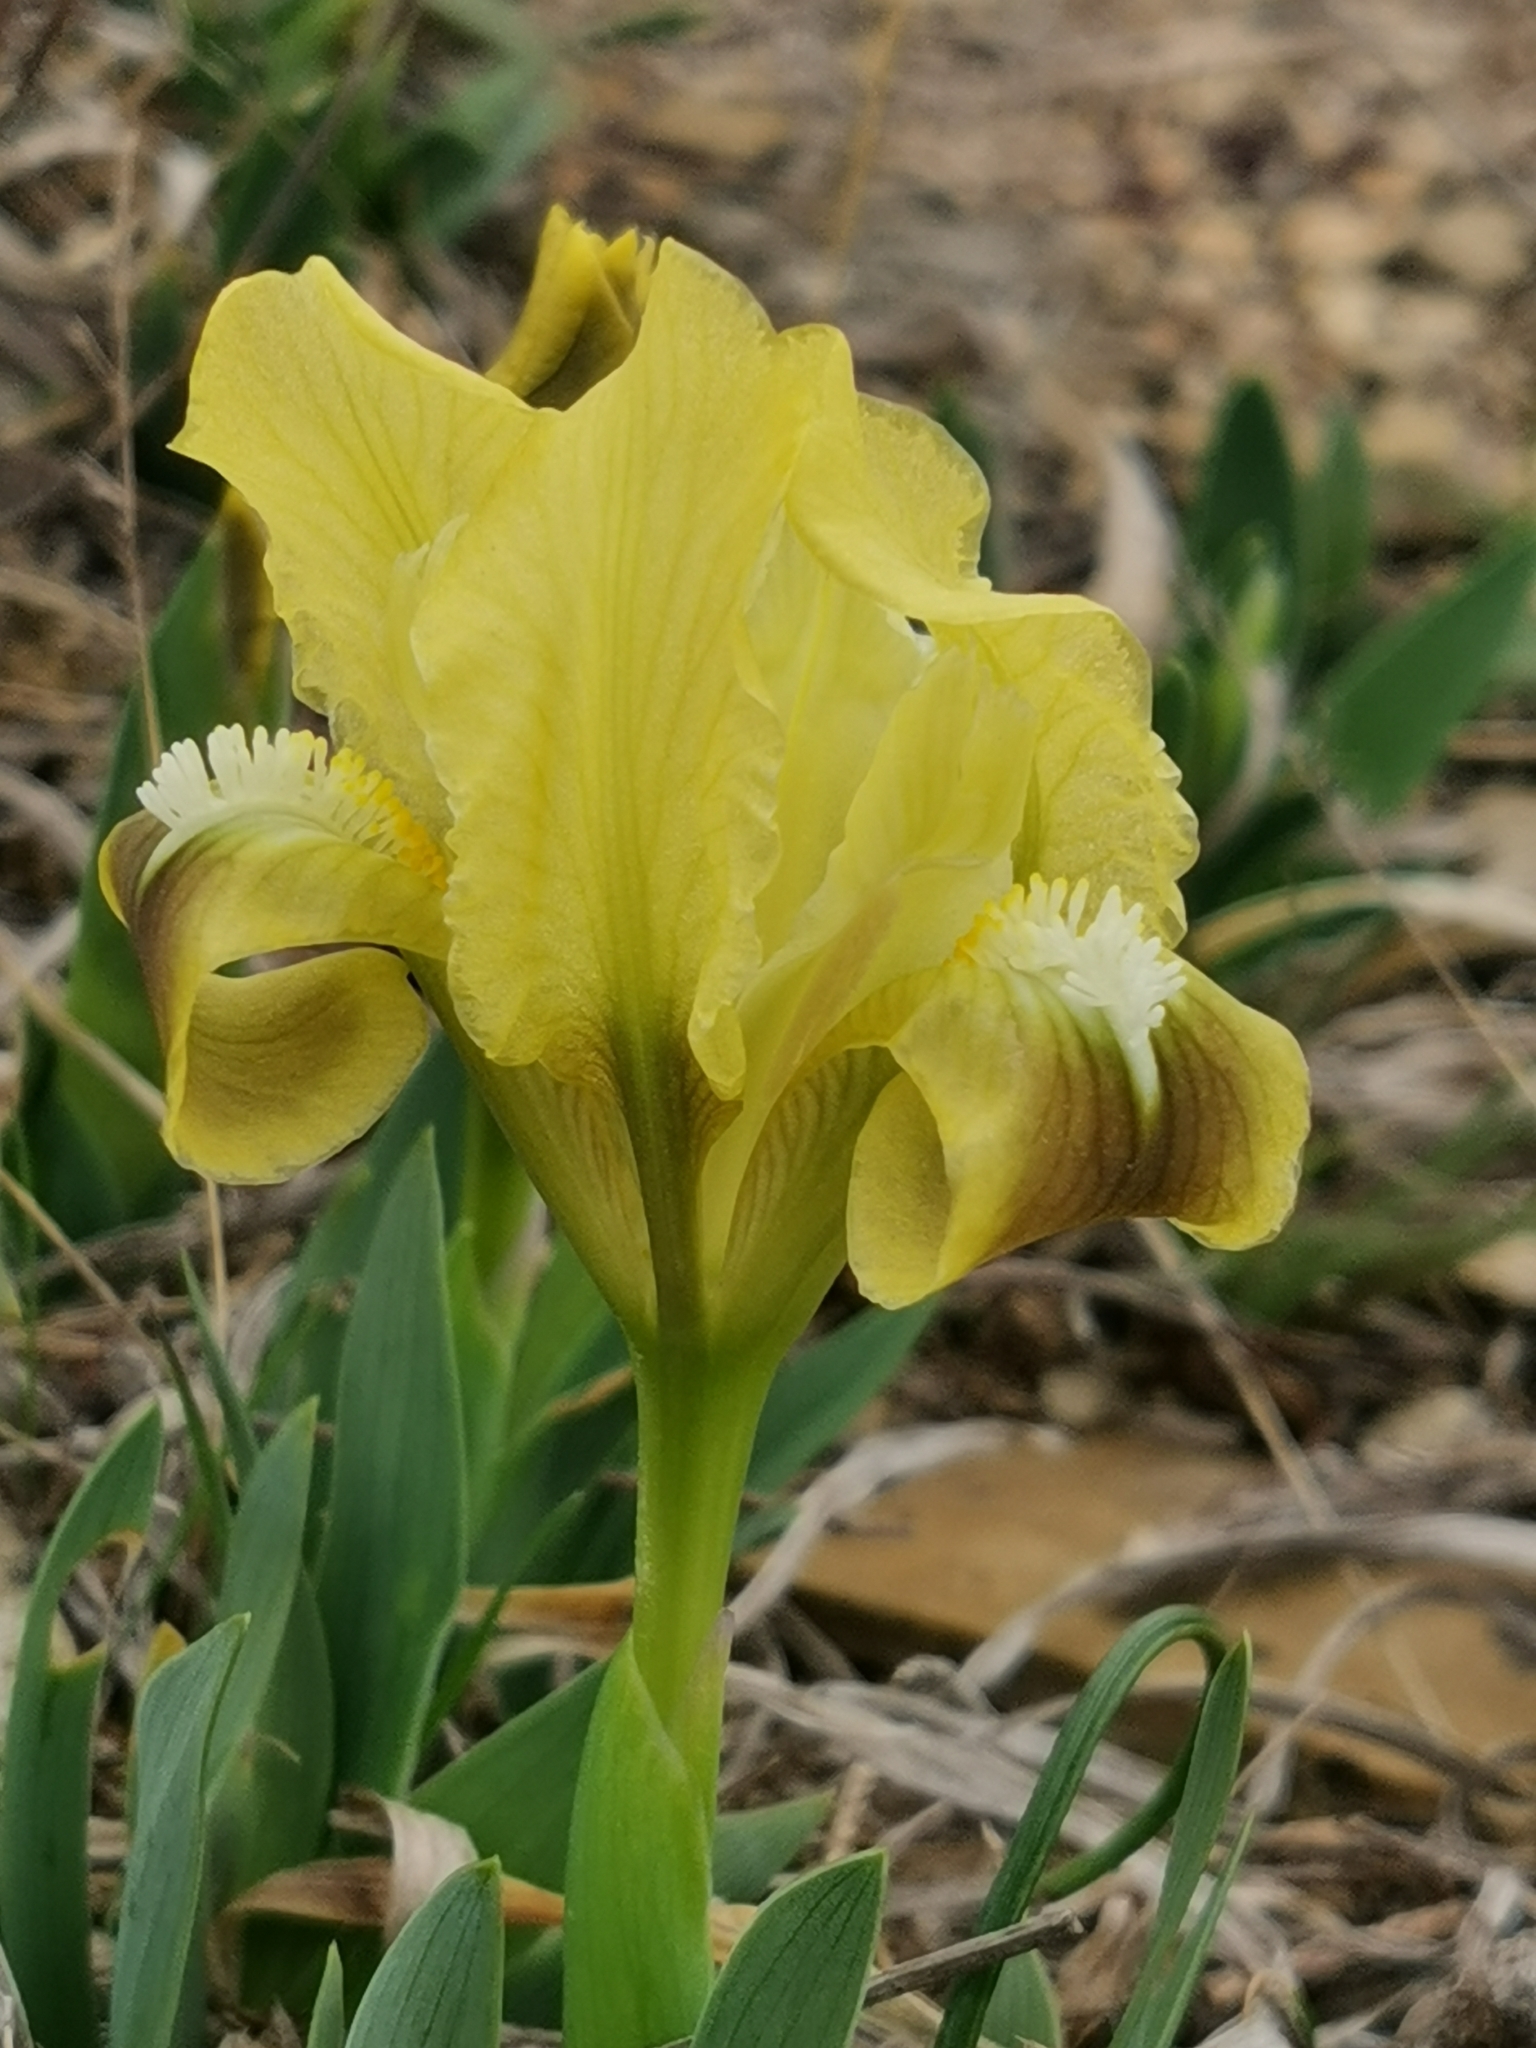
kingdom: Plantae
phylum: Tracheophyta
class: Liliopsida
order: Asparagales
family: Iridaceae
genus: Iris
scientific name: Iris pumila
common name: Dwarf iris
